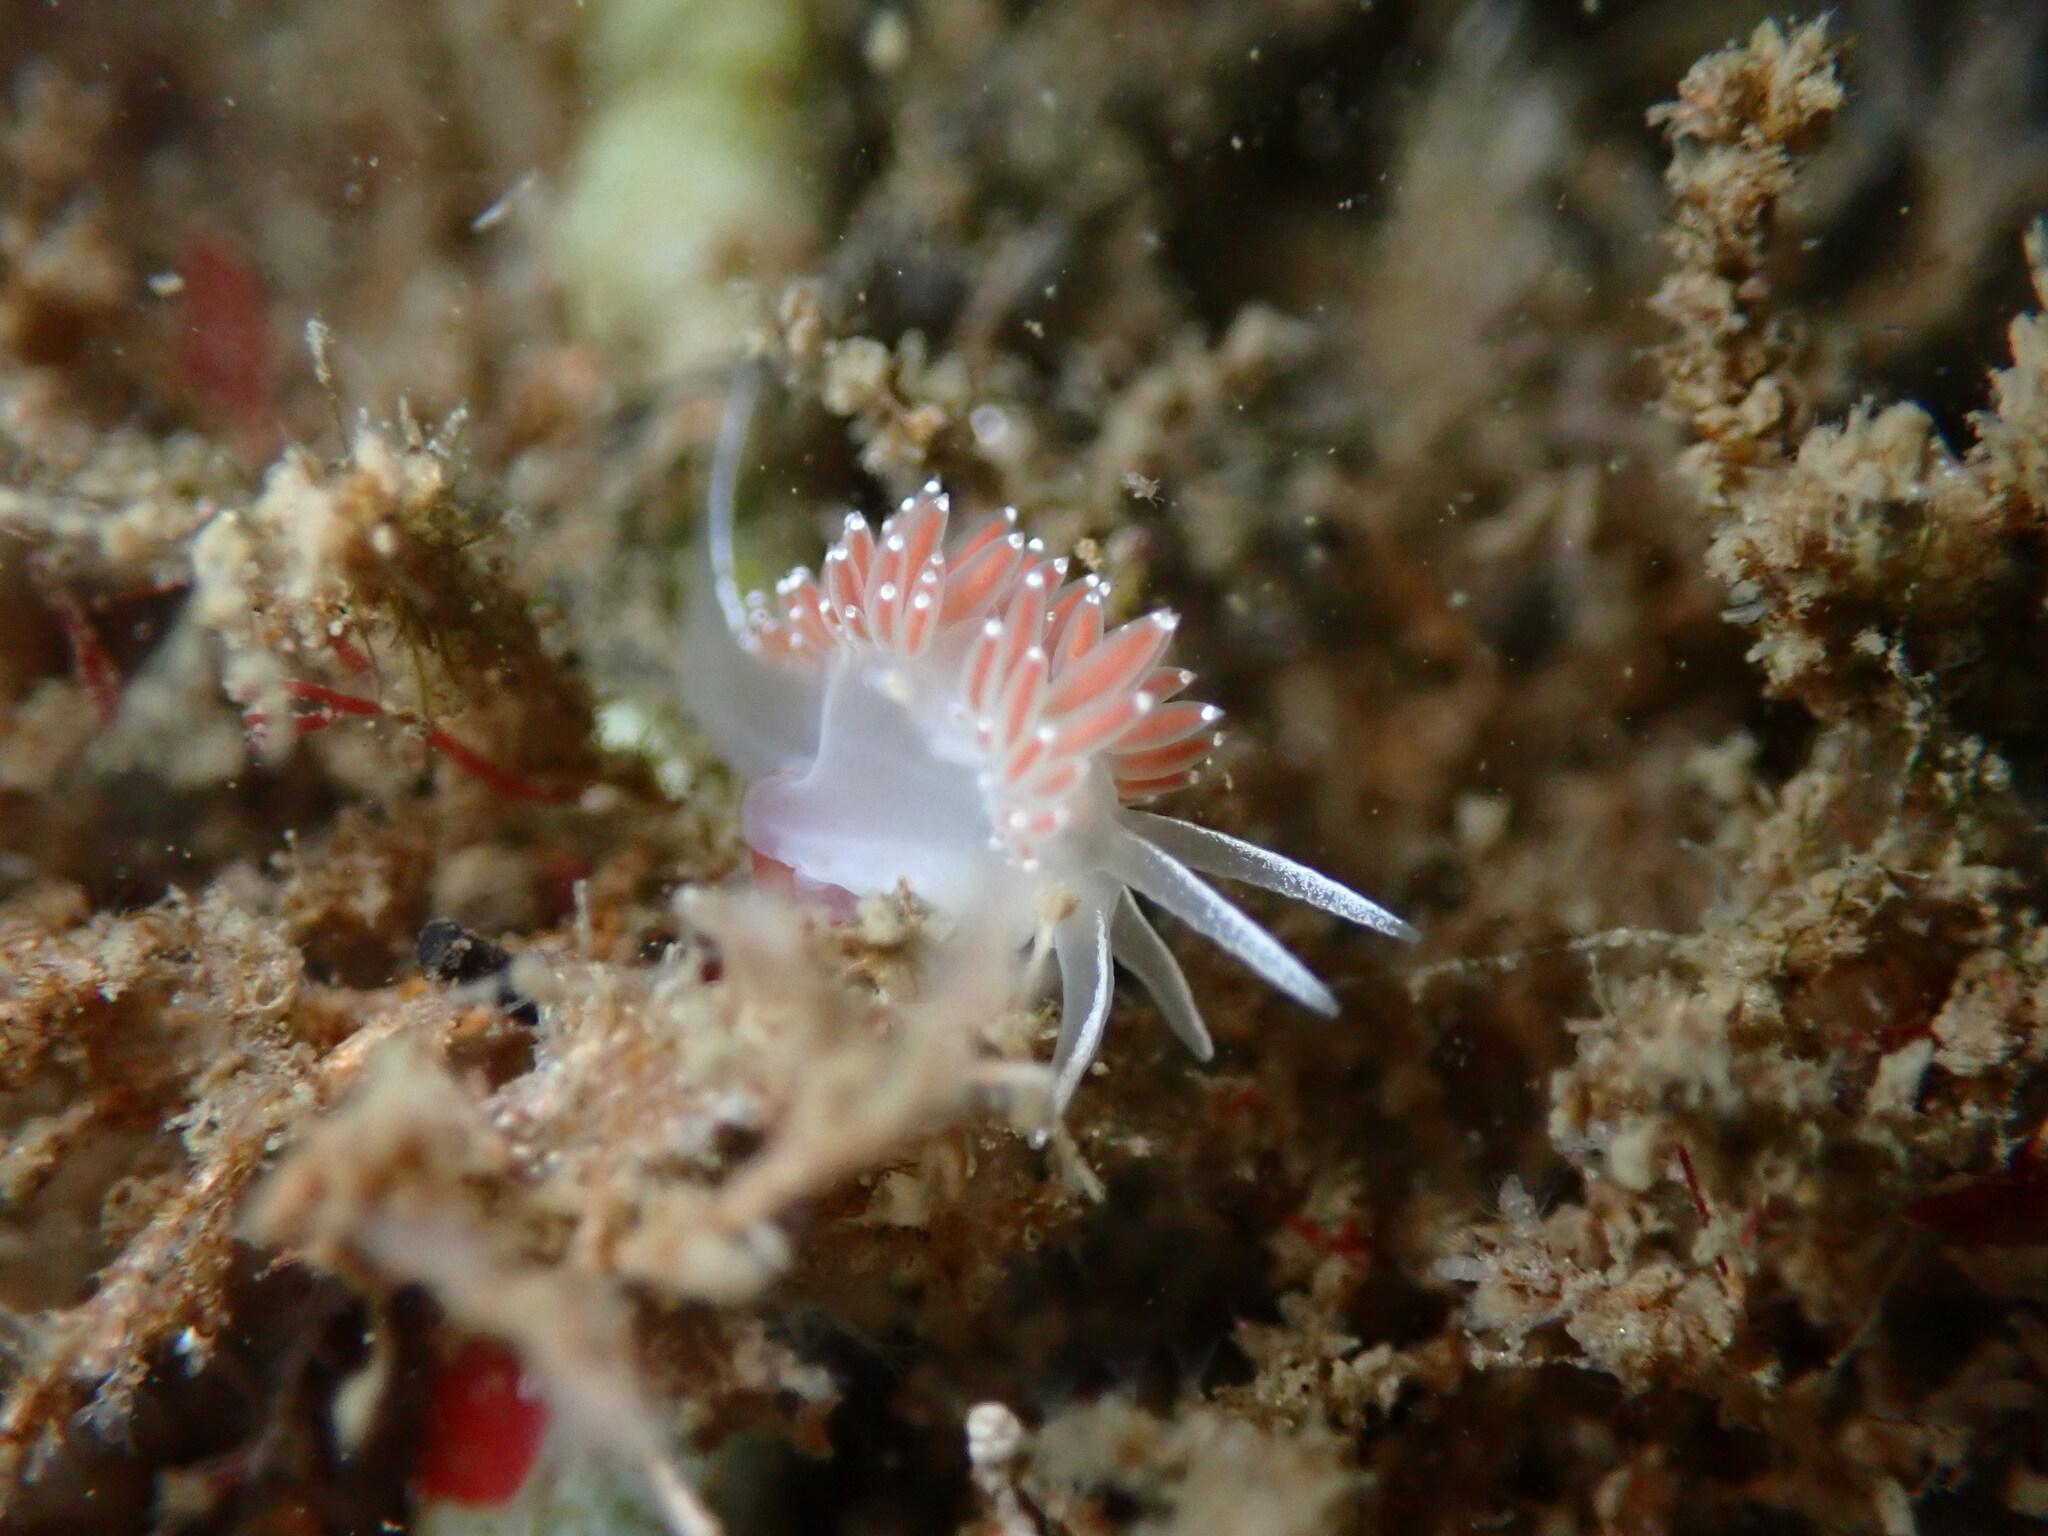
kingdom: Animalia
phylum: Mollusca
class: Gastropoda
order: Nudibranchia
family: Coryphellidae
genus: Coryphella
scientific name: Coryphella verrucosa
